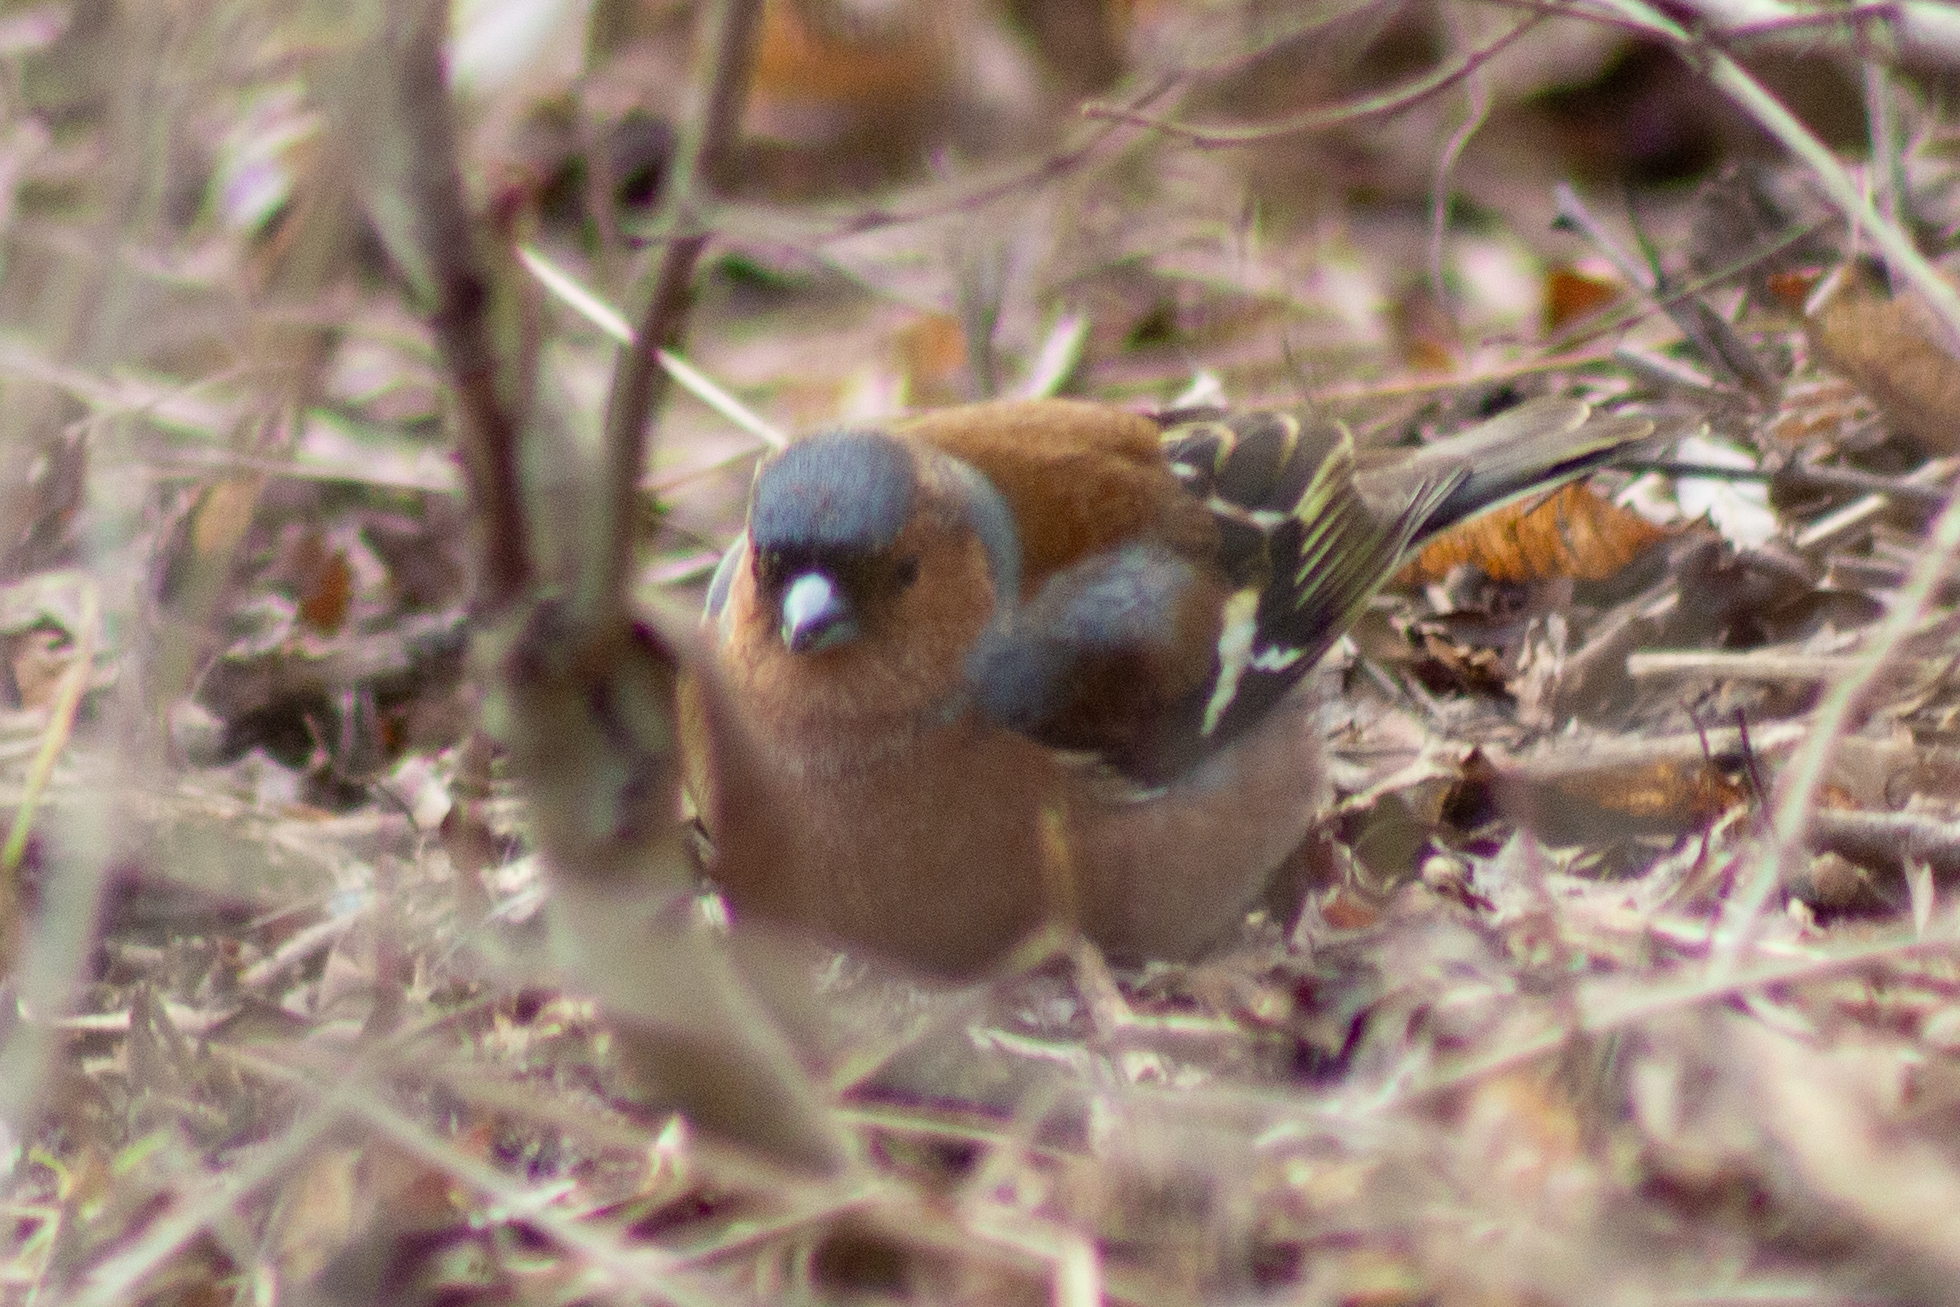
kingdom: Animalia
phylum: Chordata
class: Aves
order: Passeriformes
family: Fringillidae
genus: Fringilla
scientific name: Fringilla coelebs
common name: Common chaffinch
